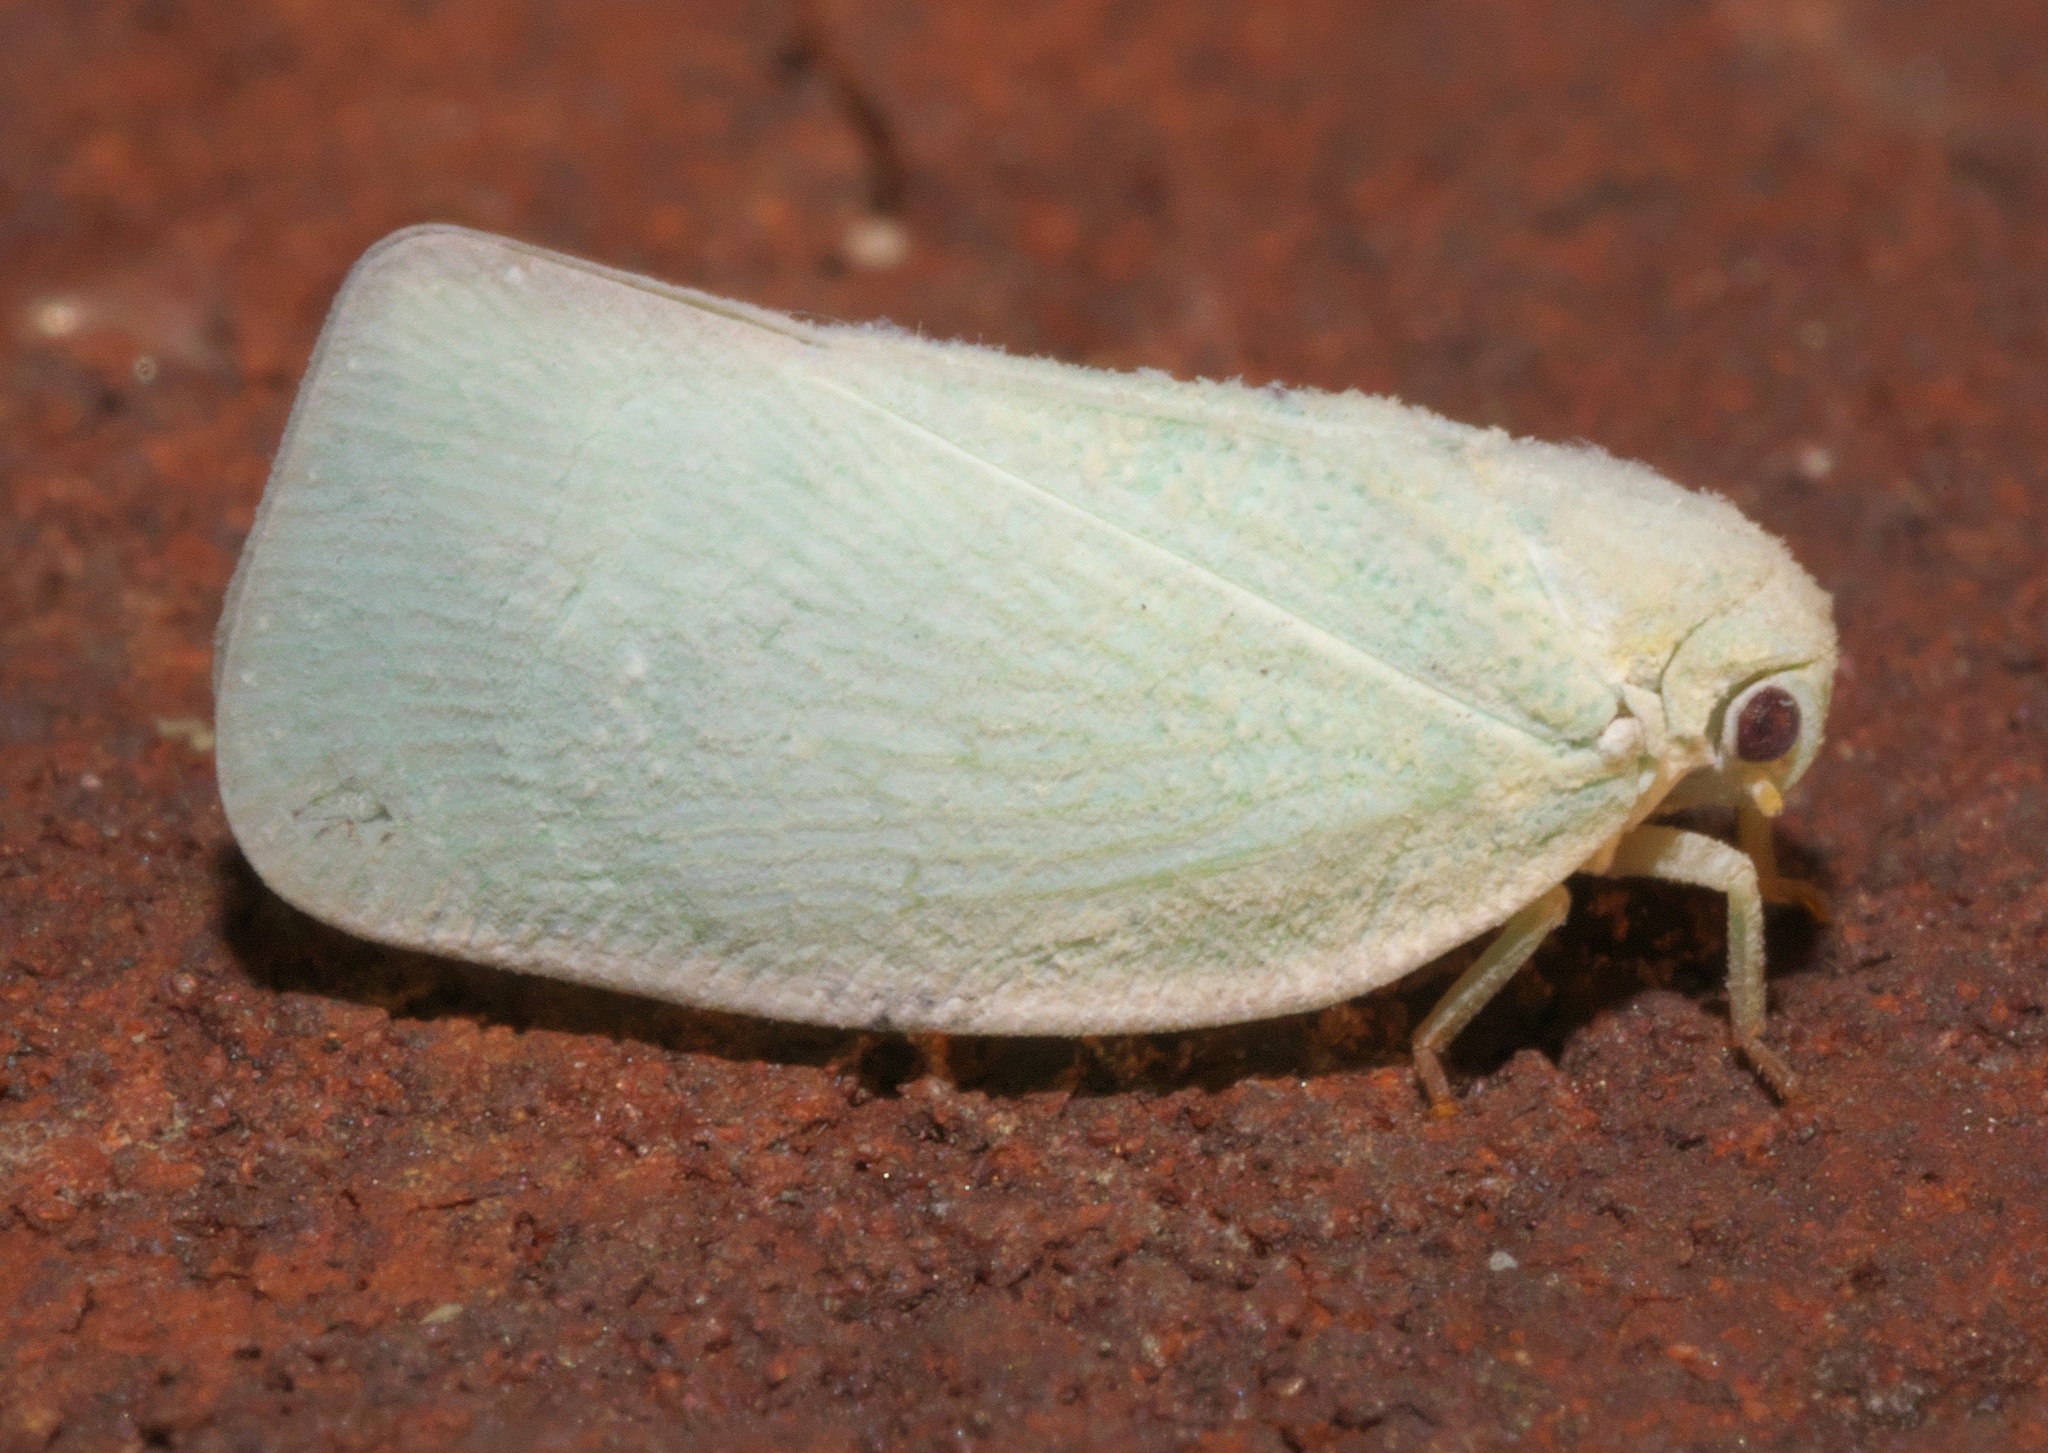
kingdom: Animalia
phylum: Arthropoda
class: Insecta
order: Hemiptera
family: Flatidae
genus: Flatormenis
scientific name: Flatormenis proxima
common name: Northern flatid planthopper
